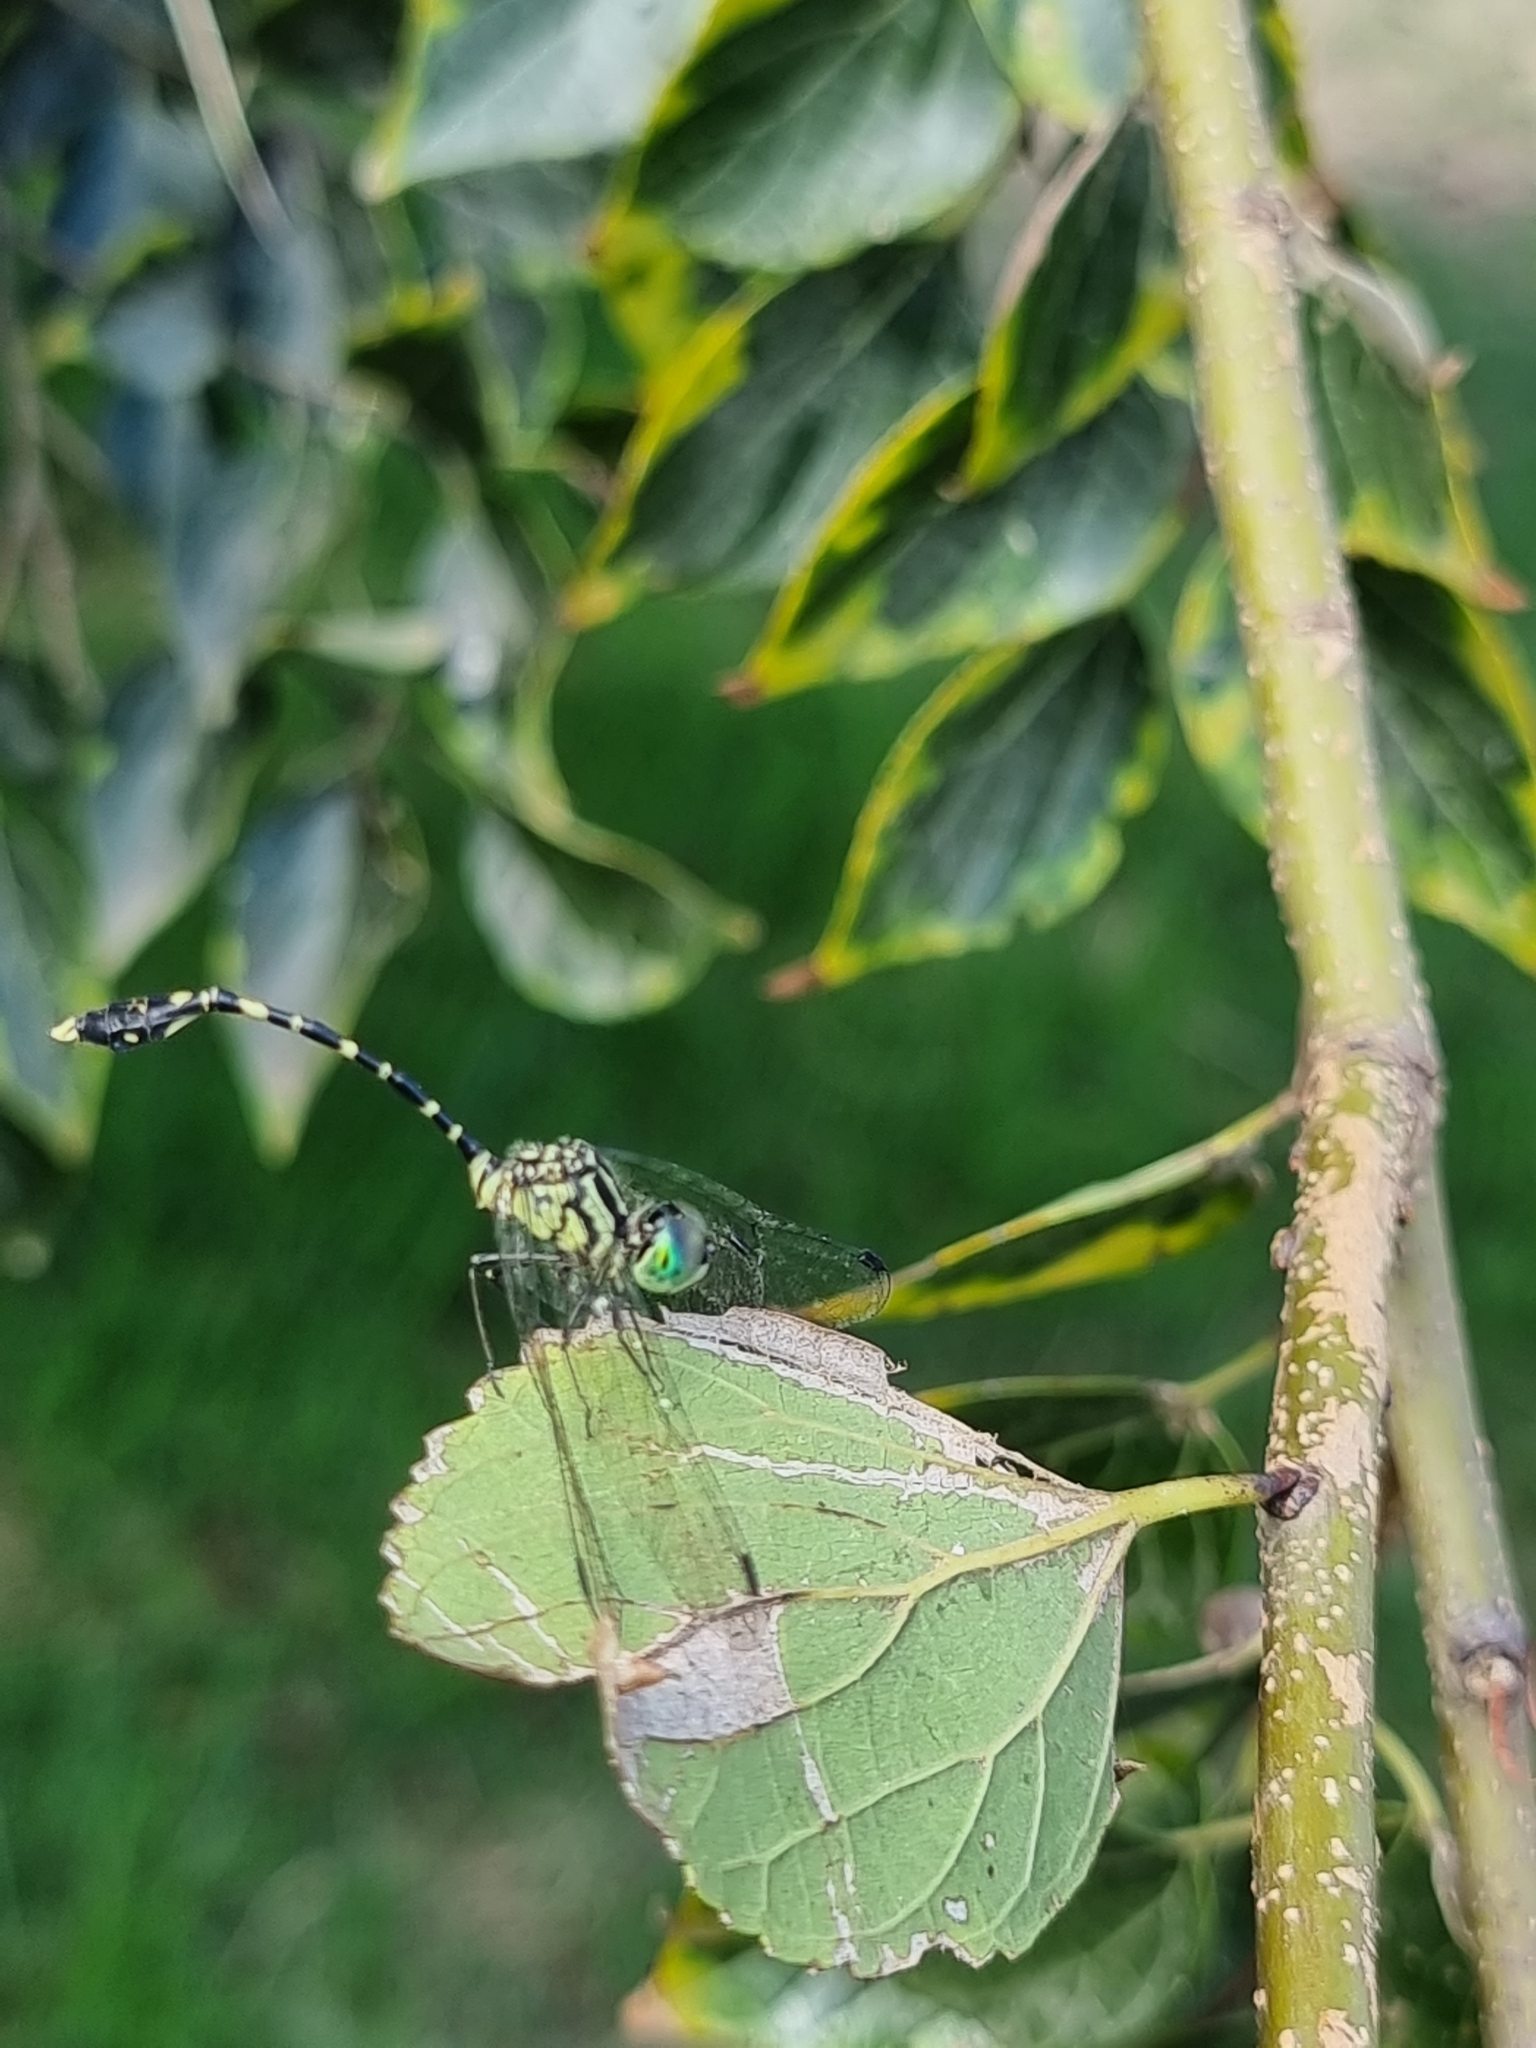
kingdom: Animalia
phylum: Arthropoda
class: Insecta
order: Odonata
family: Libellulidae
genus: Nannophlebia
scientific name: Nannophlebia risi
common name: Common archtail
